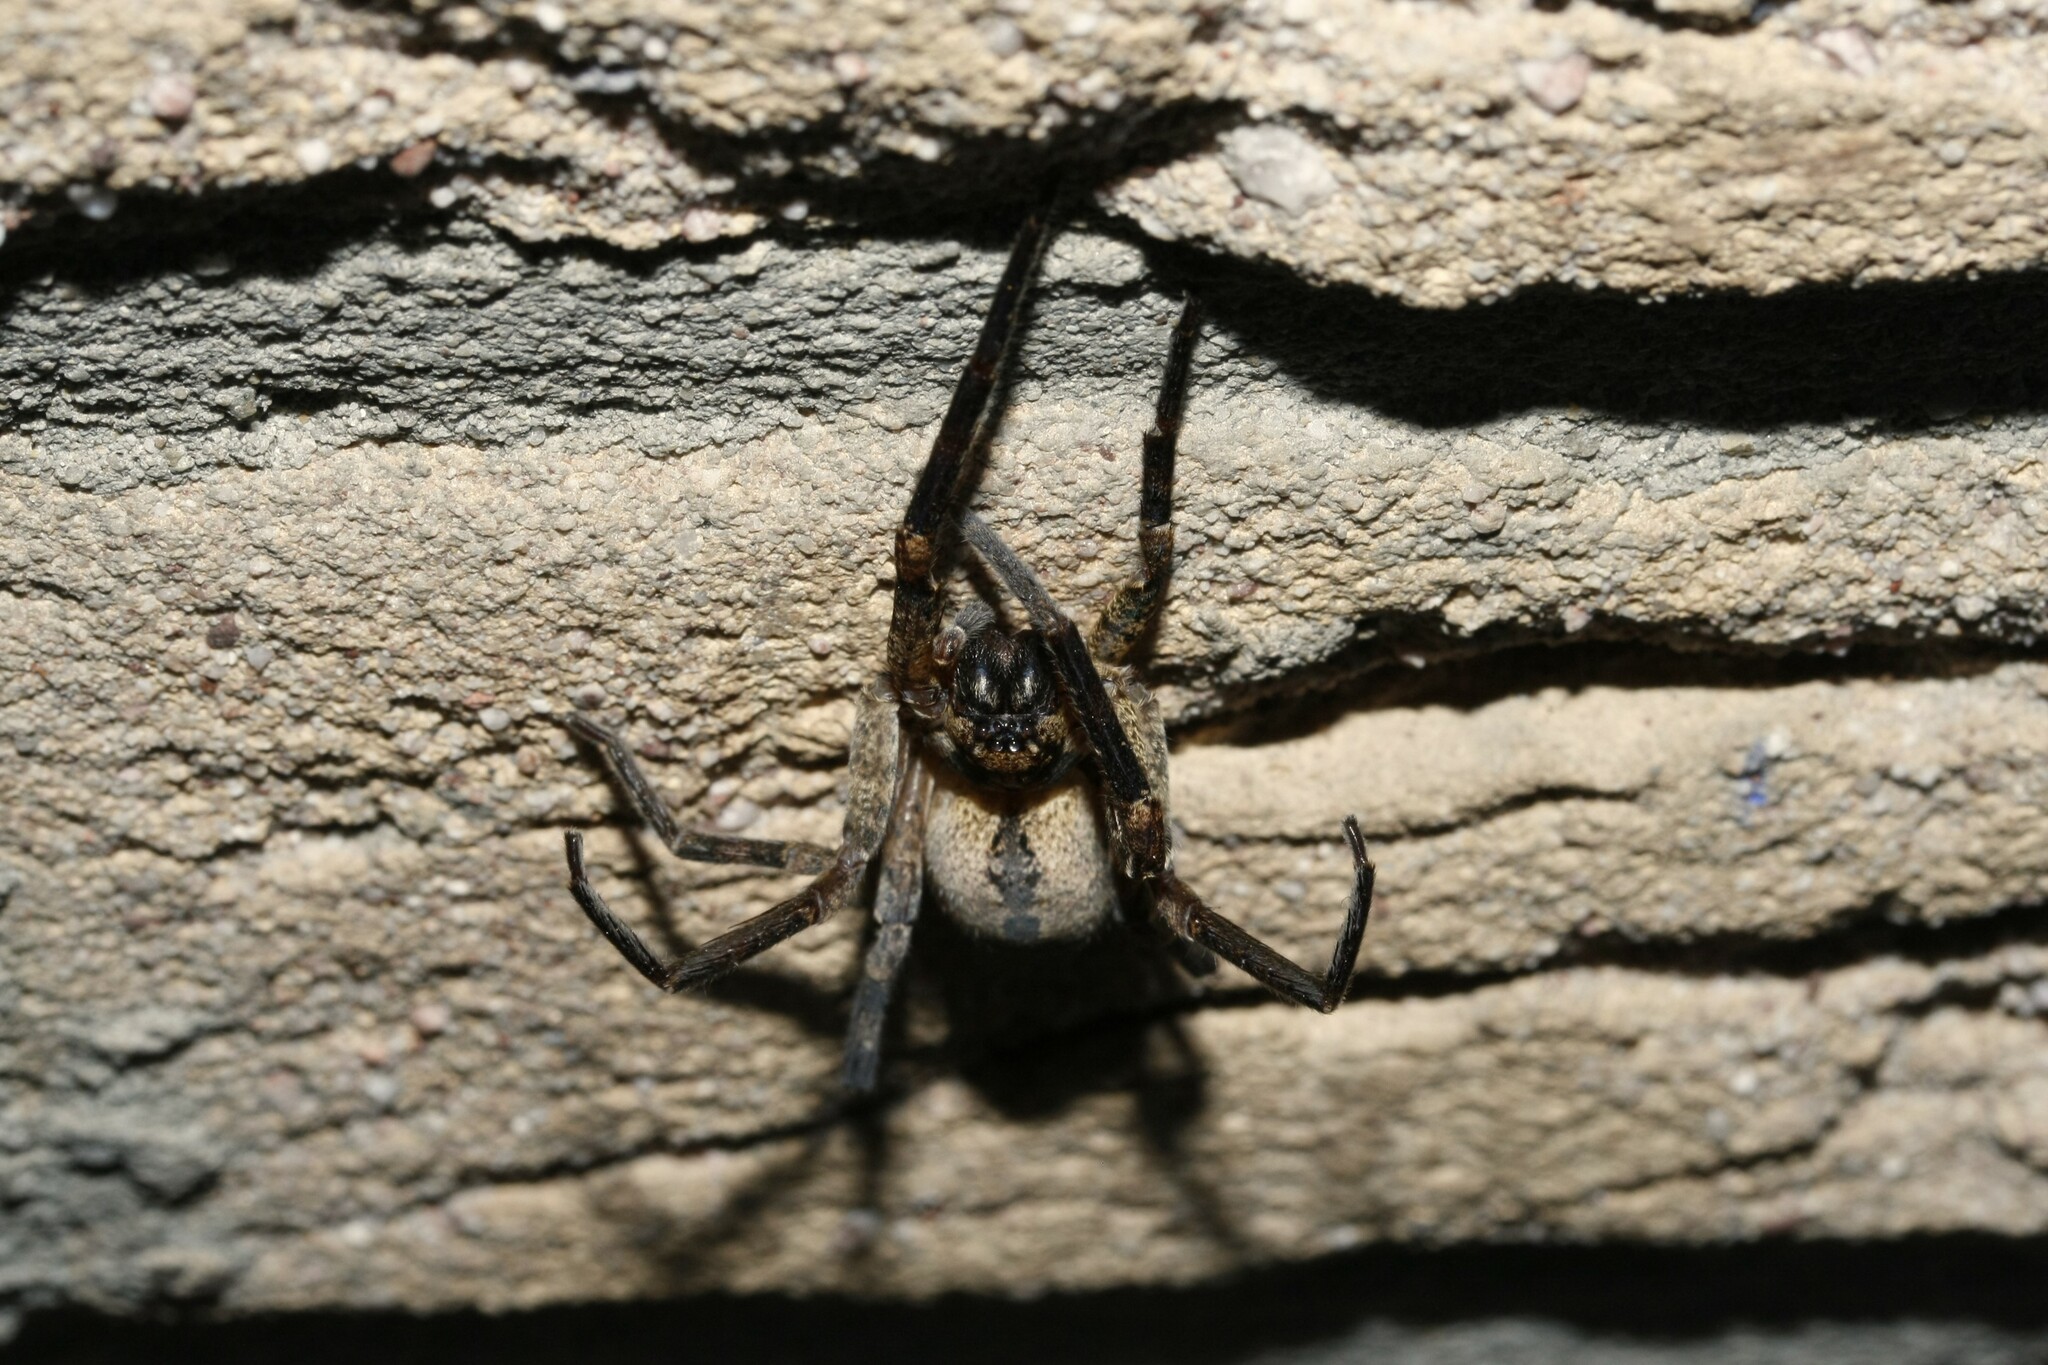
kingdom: Animalia
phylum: Arthropoda
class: Arachnida
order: Araneae
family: Zoropsidae
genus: Zoropsis
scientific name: Zoropsis spinimana
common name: Zoropsid spider
